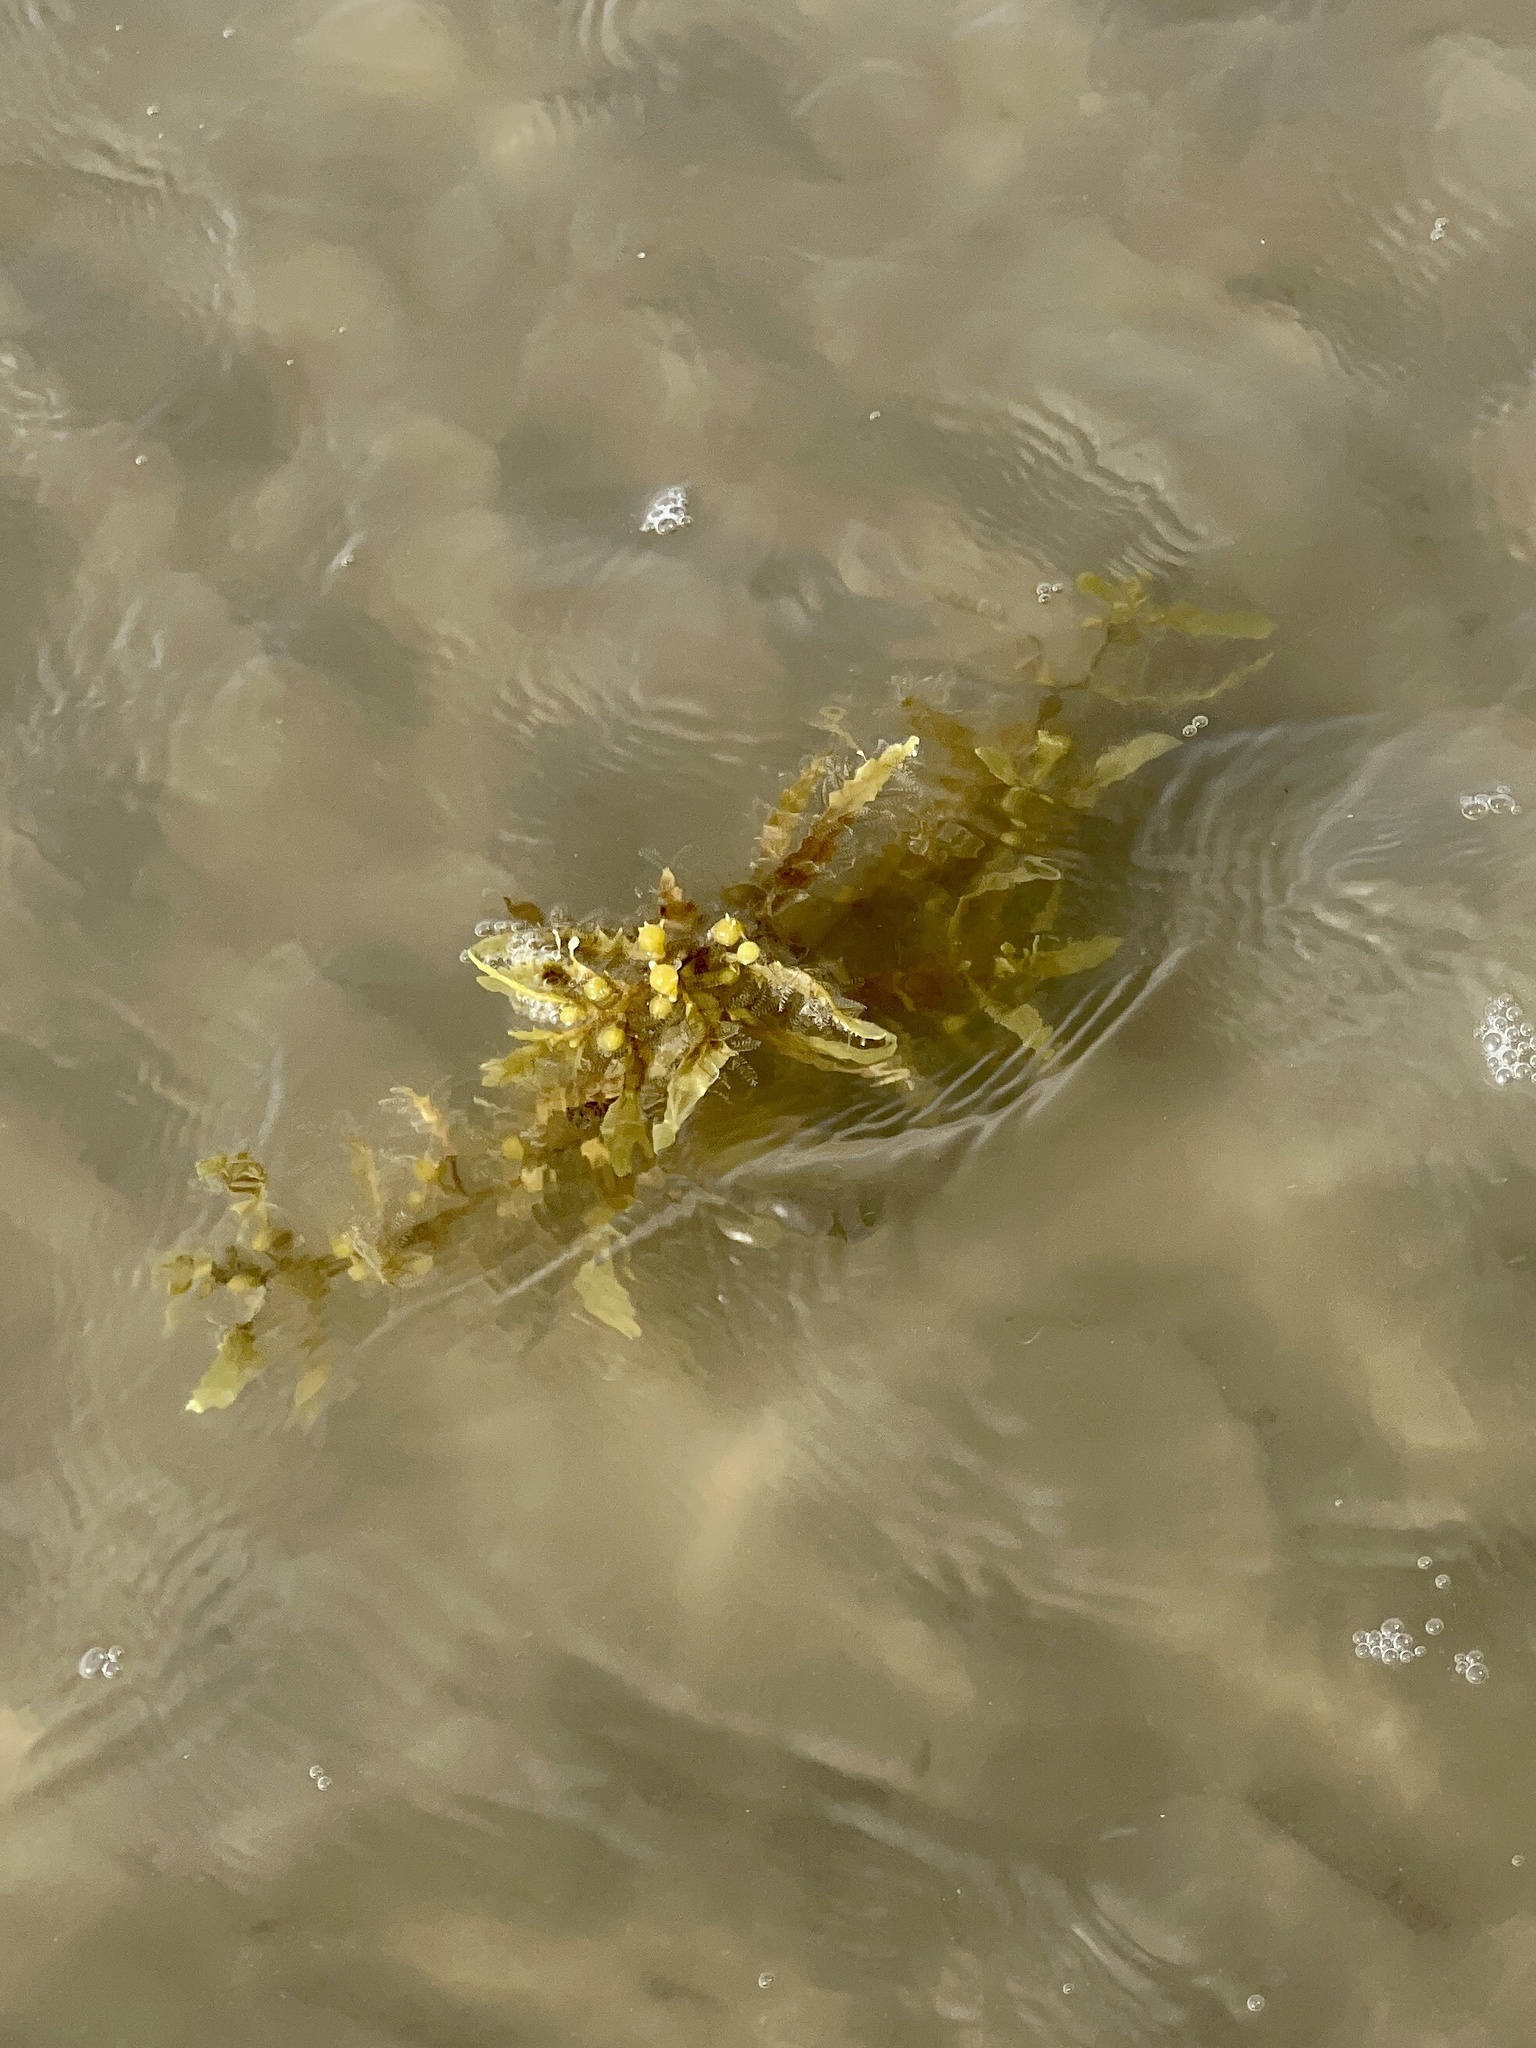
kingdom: Chromista
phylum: Ochrophyta
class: Phaeophyceae
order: Fucales
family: Sargassaceae
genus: Sargassum
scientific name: Sargassum fluitans
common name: Sargassum seaweed
